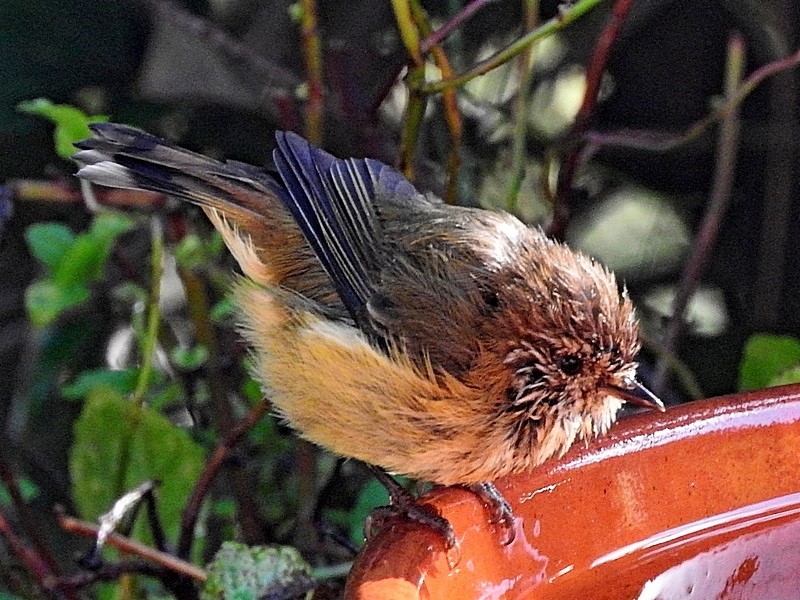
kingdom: Animalia
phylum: Chordata
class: Aves
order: Passeriformes
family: Acanthizidae
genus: Acanthiza
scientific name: Acanthiza lineata
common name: Striated thornbill
